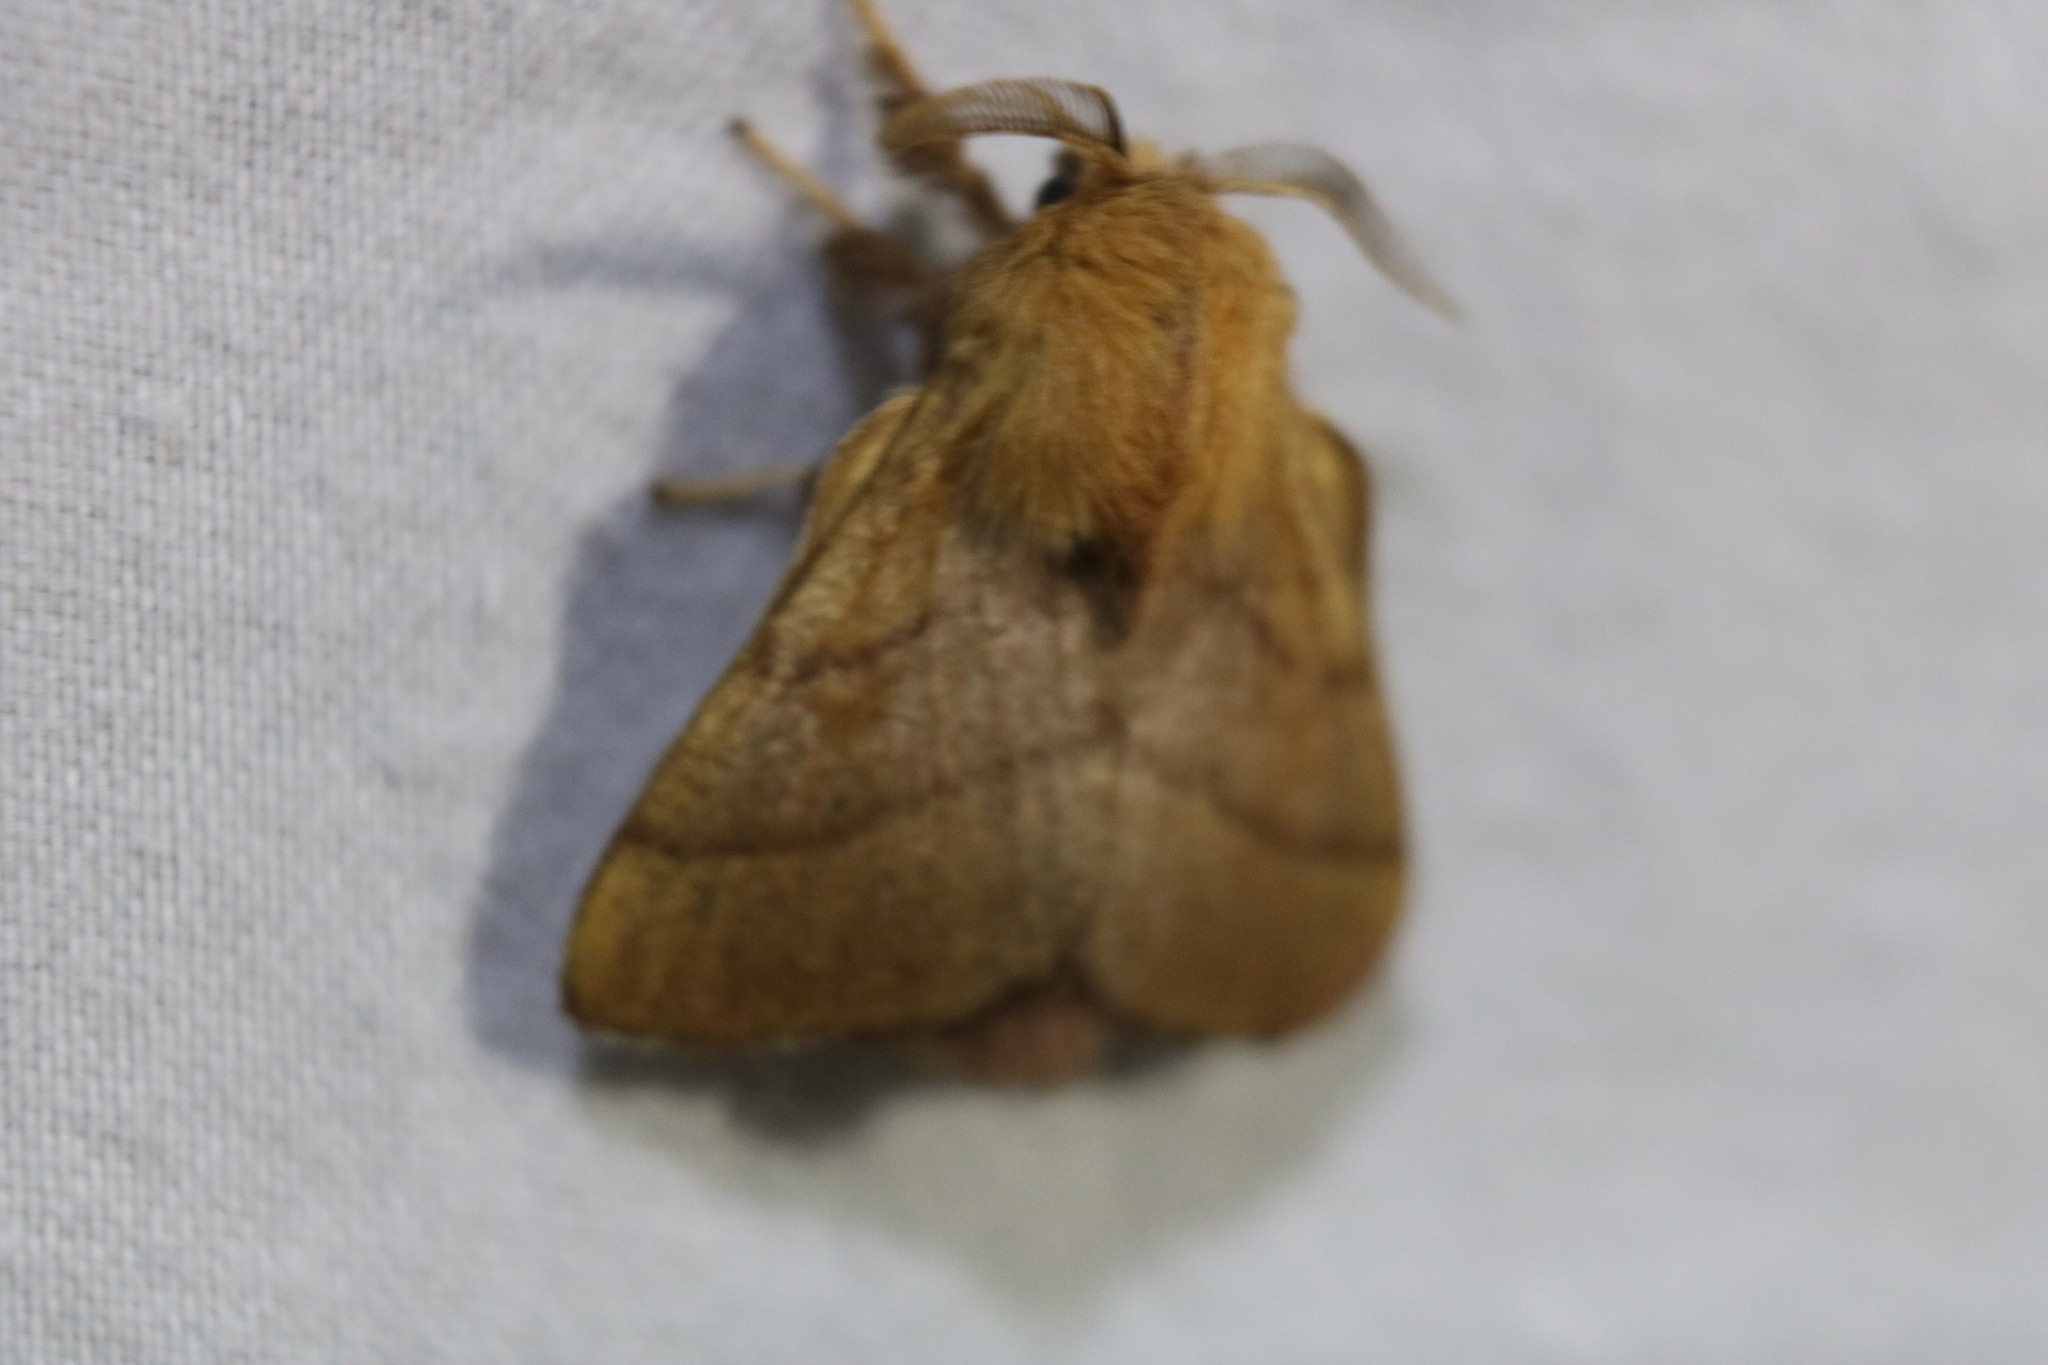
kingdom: Animalia
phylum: Arthropoda
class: Insecta
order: Lepidoptera
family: Lasiocampidae
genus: Malacosoma
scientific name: Malacosoma disstria
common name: Forest tent caterpillar
